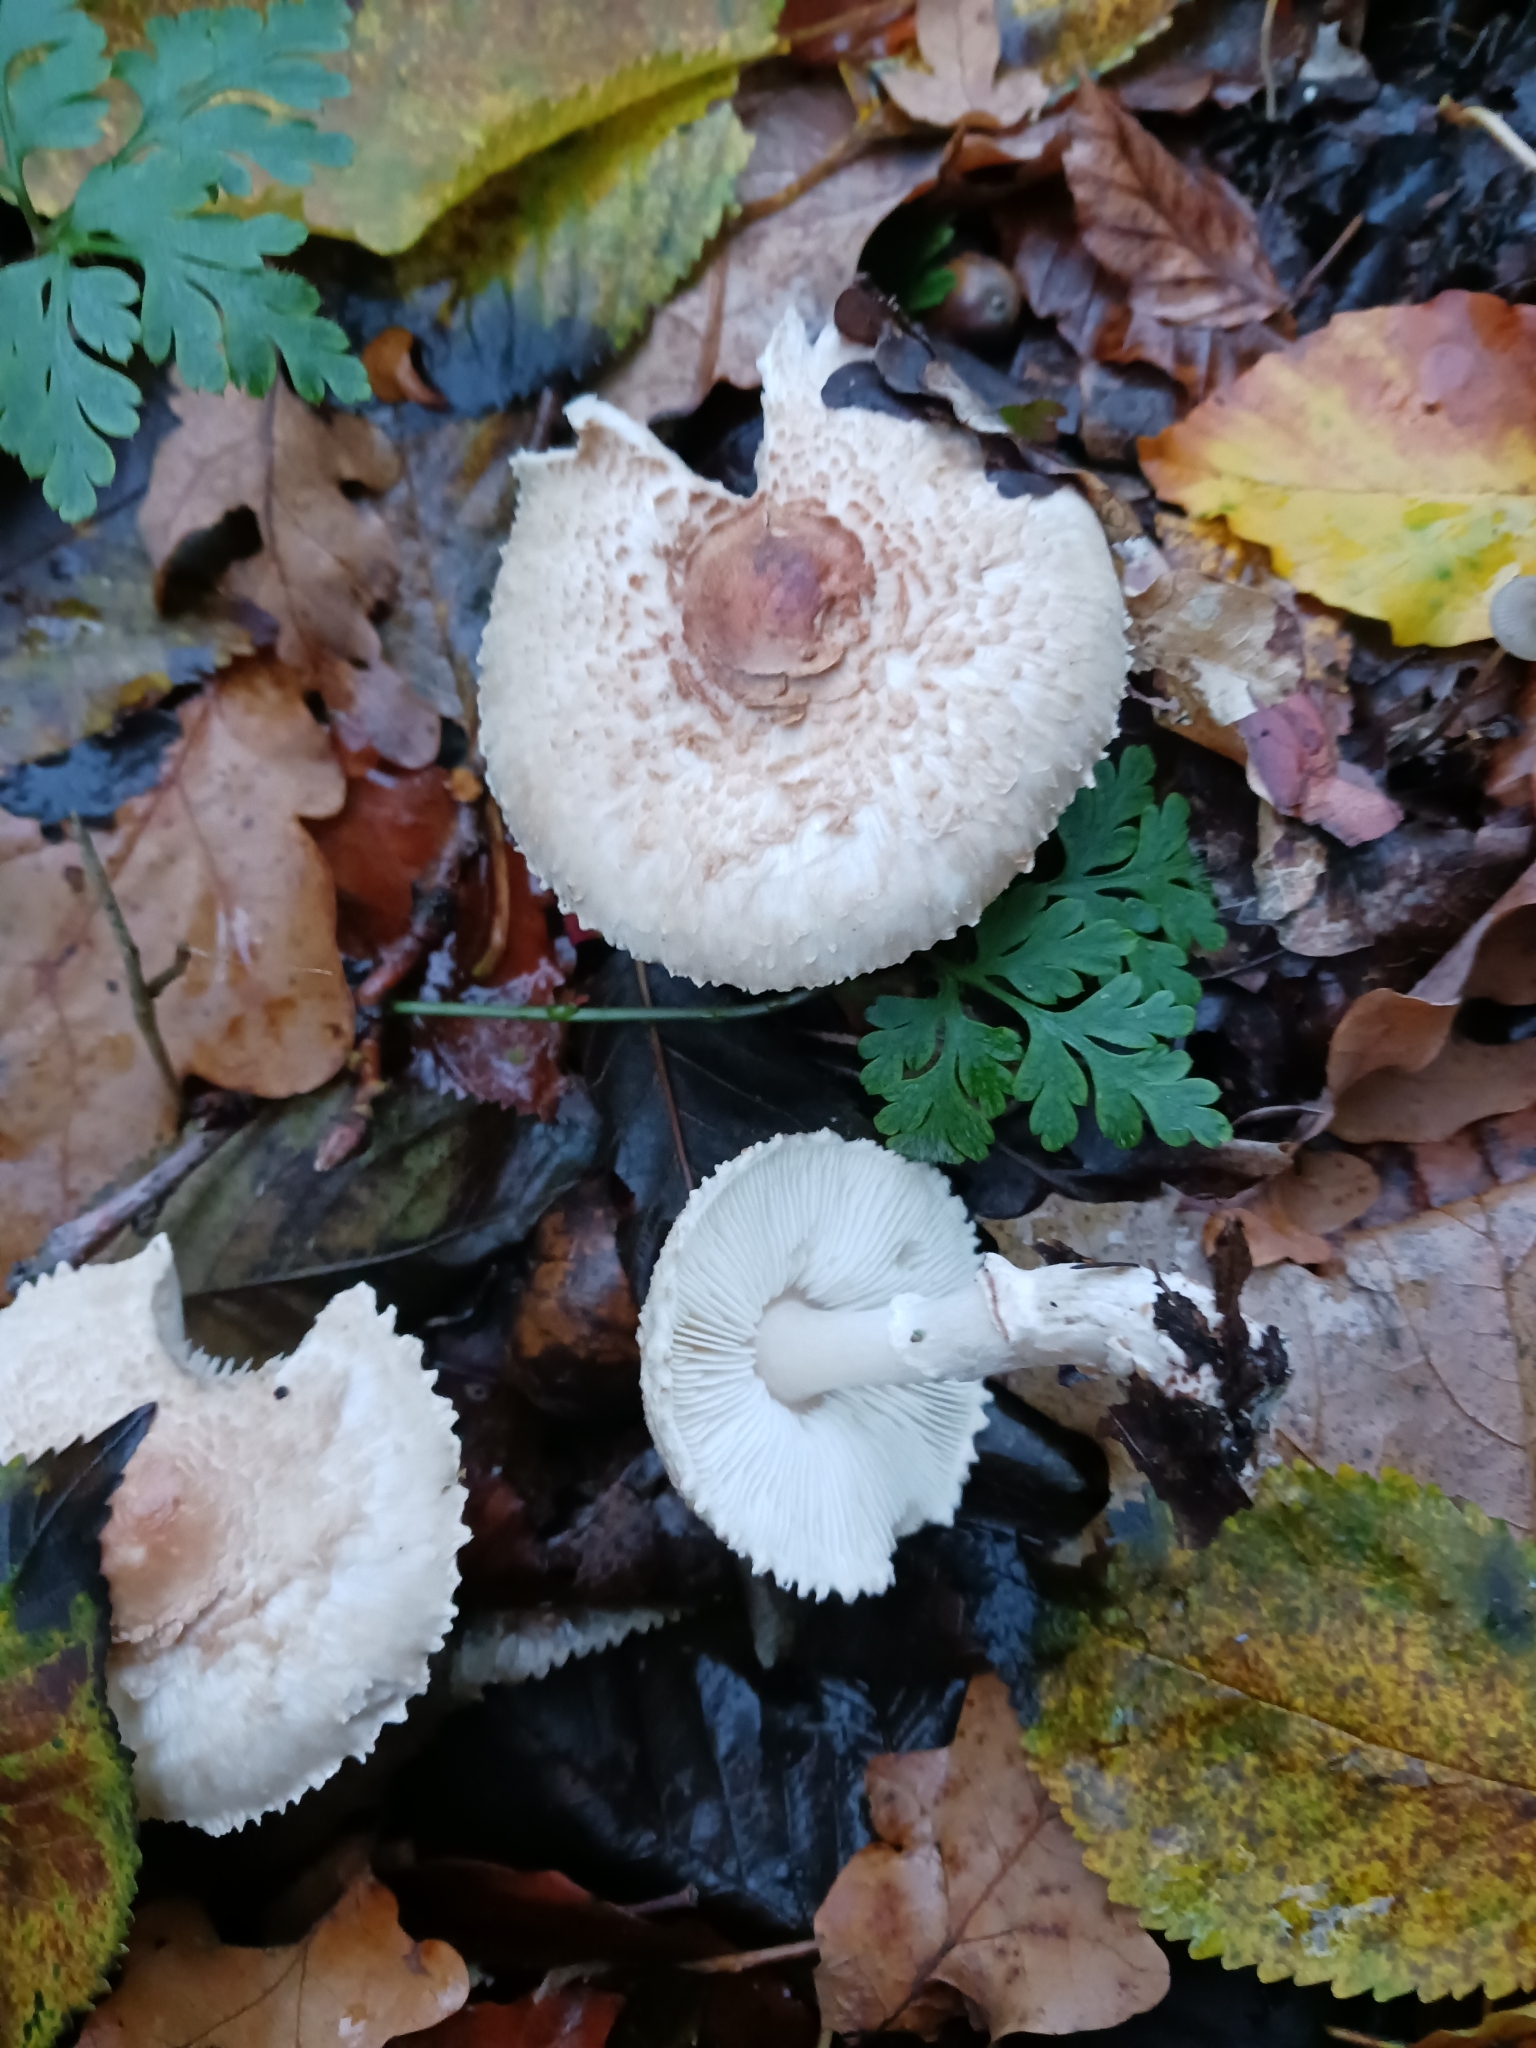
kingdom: Fungi
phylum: Basidiomycota
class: Agaricomycetes
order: Agaricales
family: Agaricaceae
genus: Lepiota
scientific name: Lepiota ignivolvata
